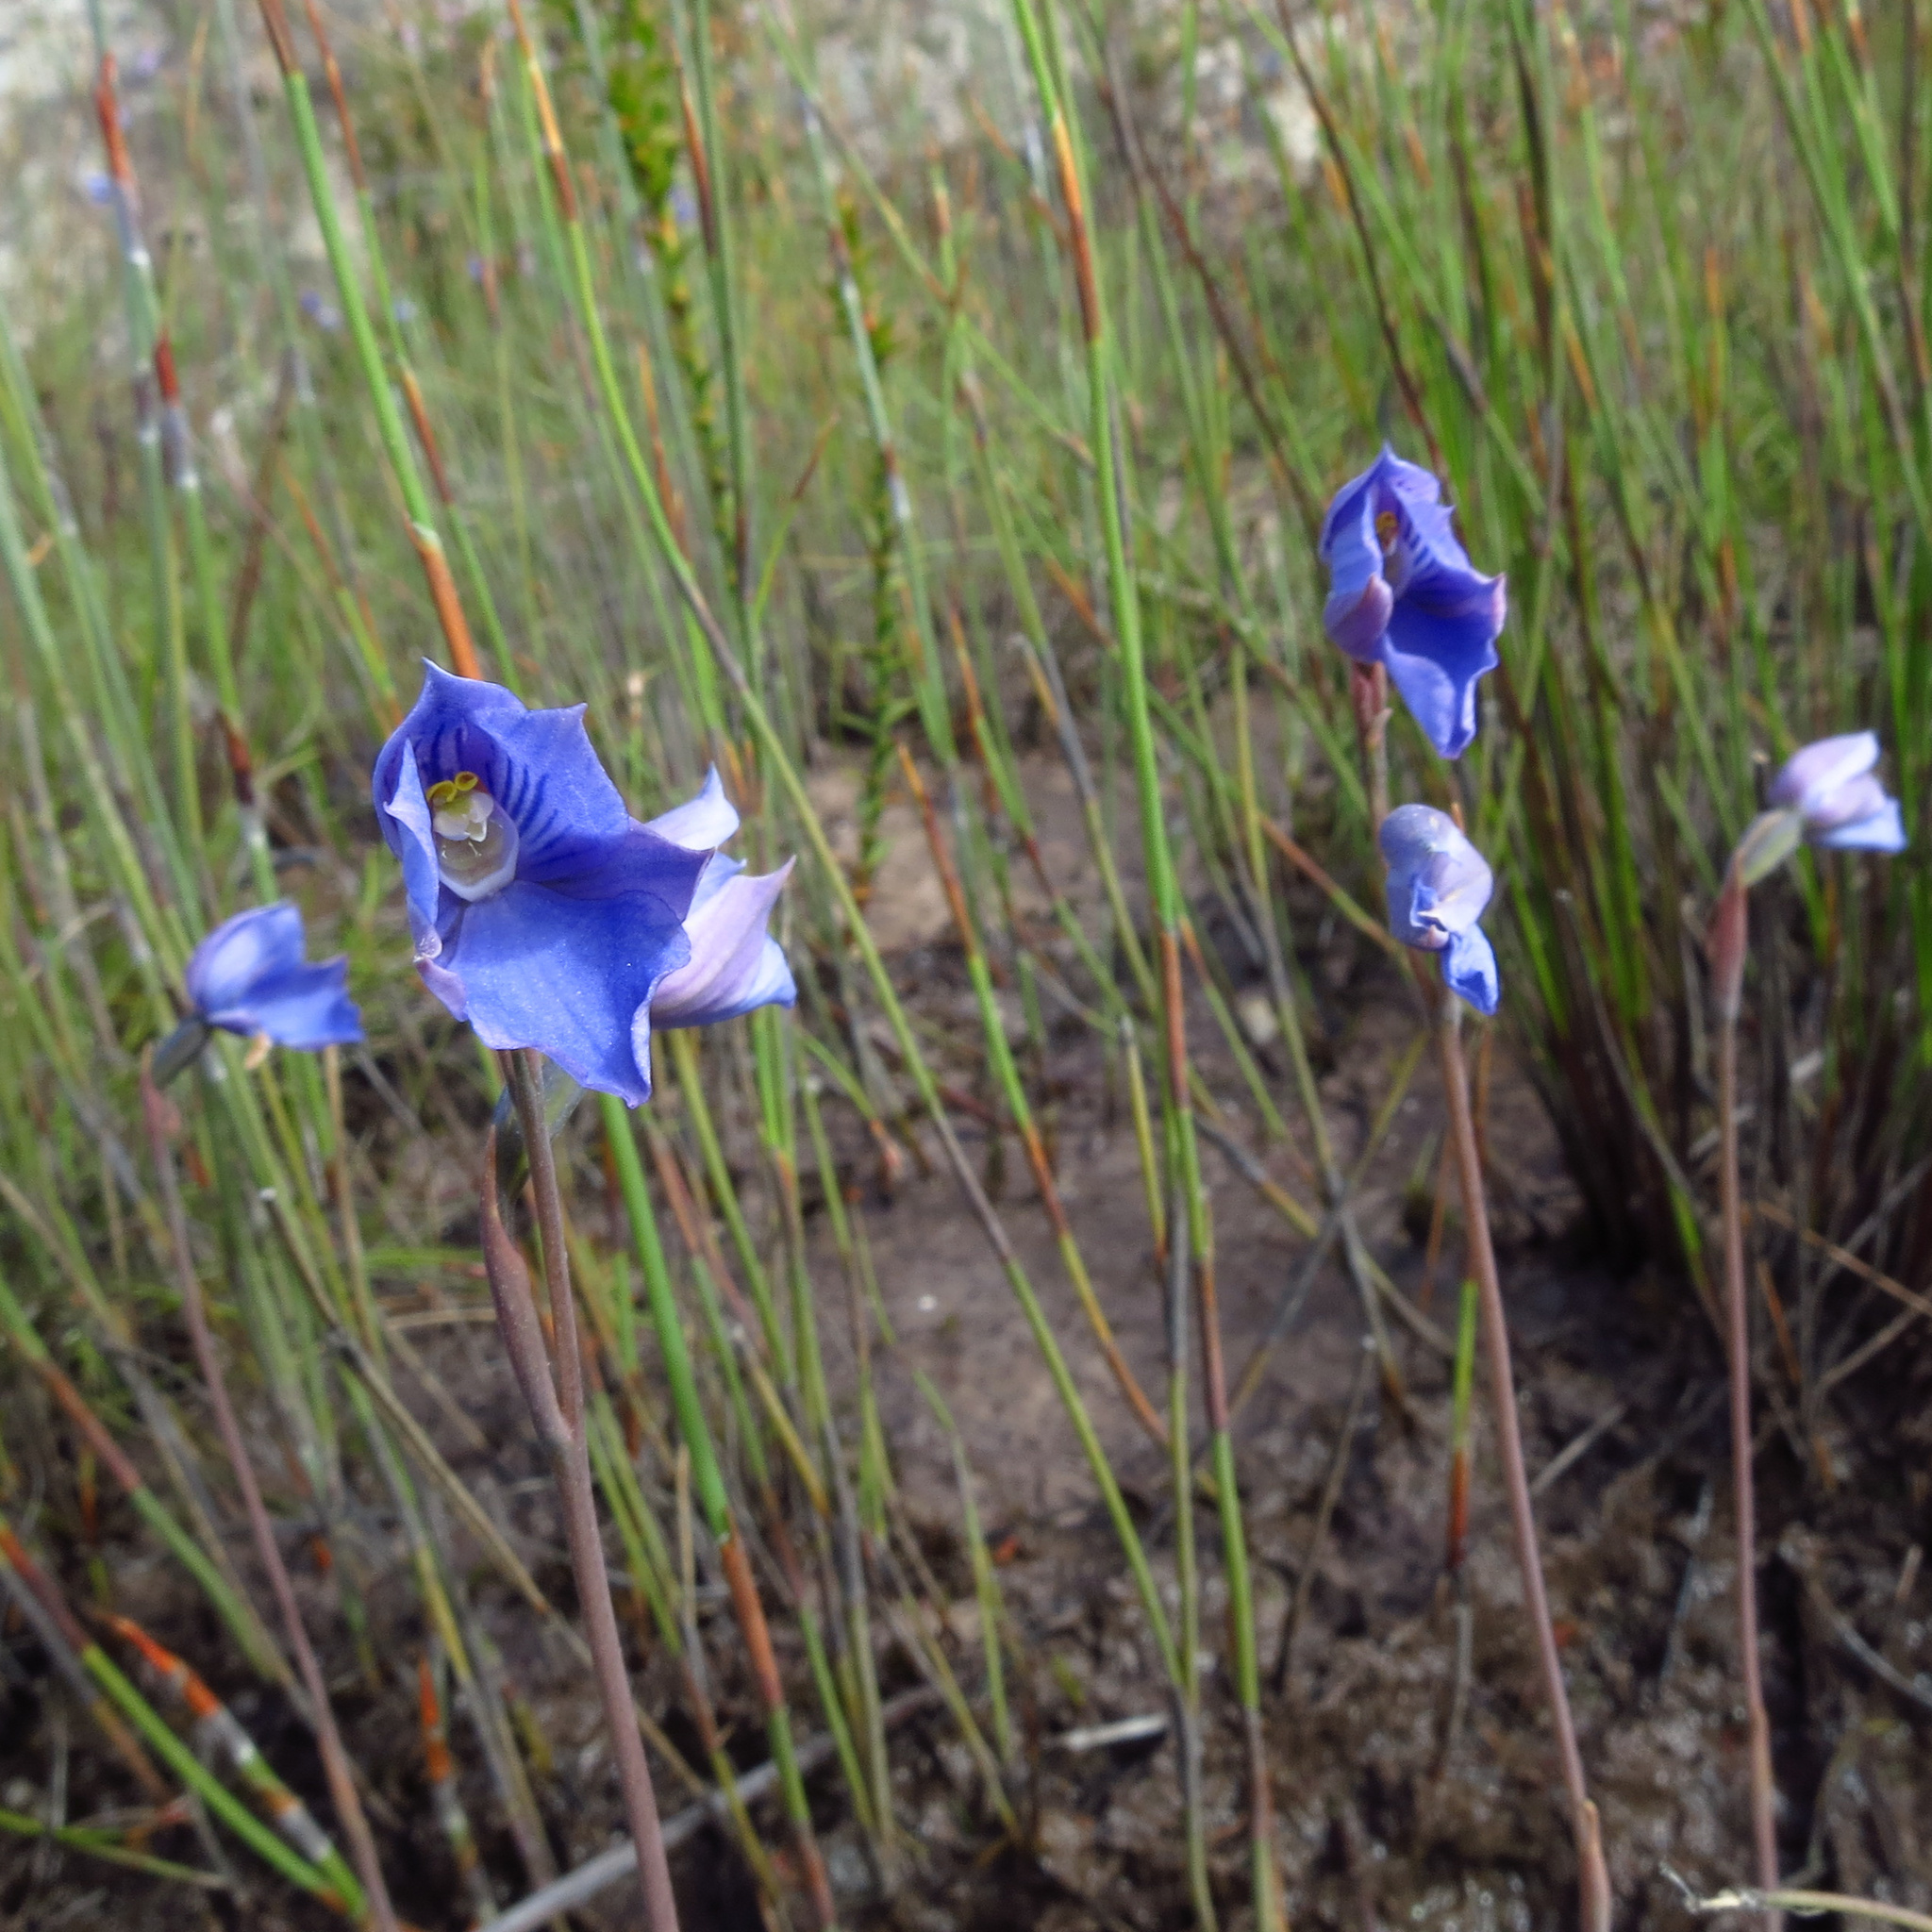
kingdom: Plantae
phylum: Tracheophyta
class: Liliopsida
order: Asparagales
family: Orchidaceae
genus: Thelymitra
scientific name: Thelymitra cyanea
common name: Blue sun-orchid
